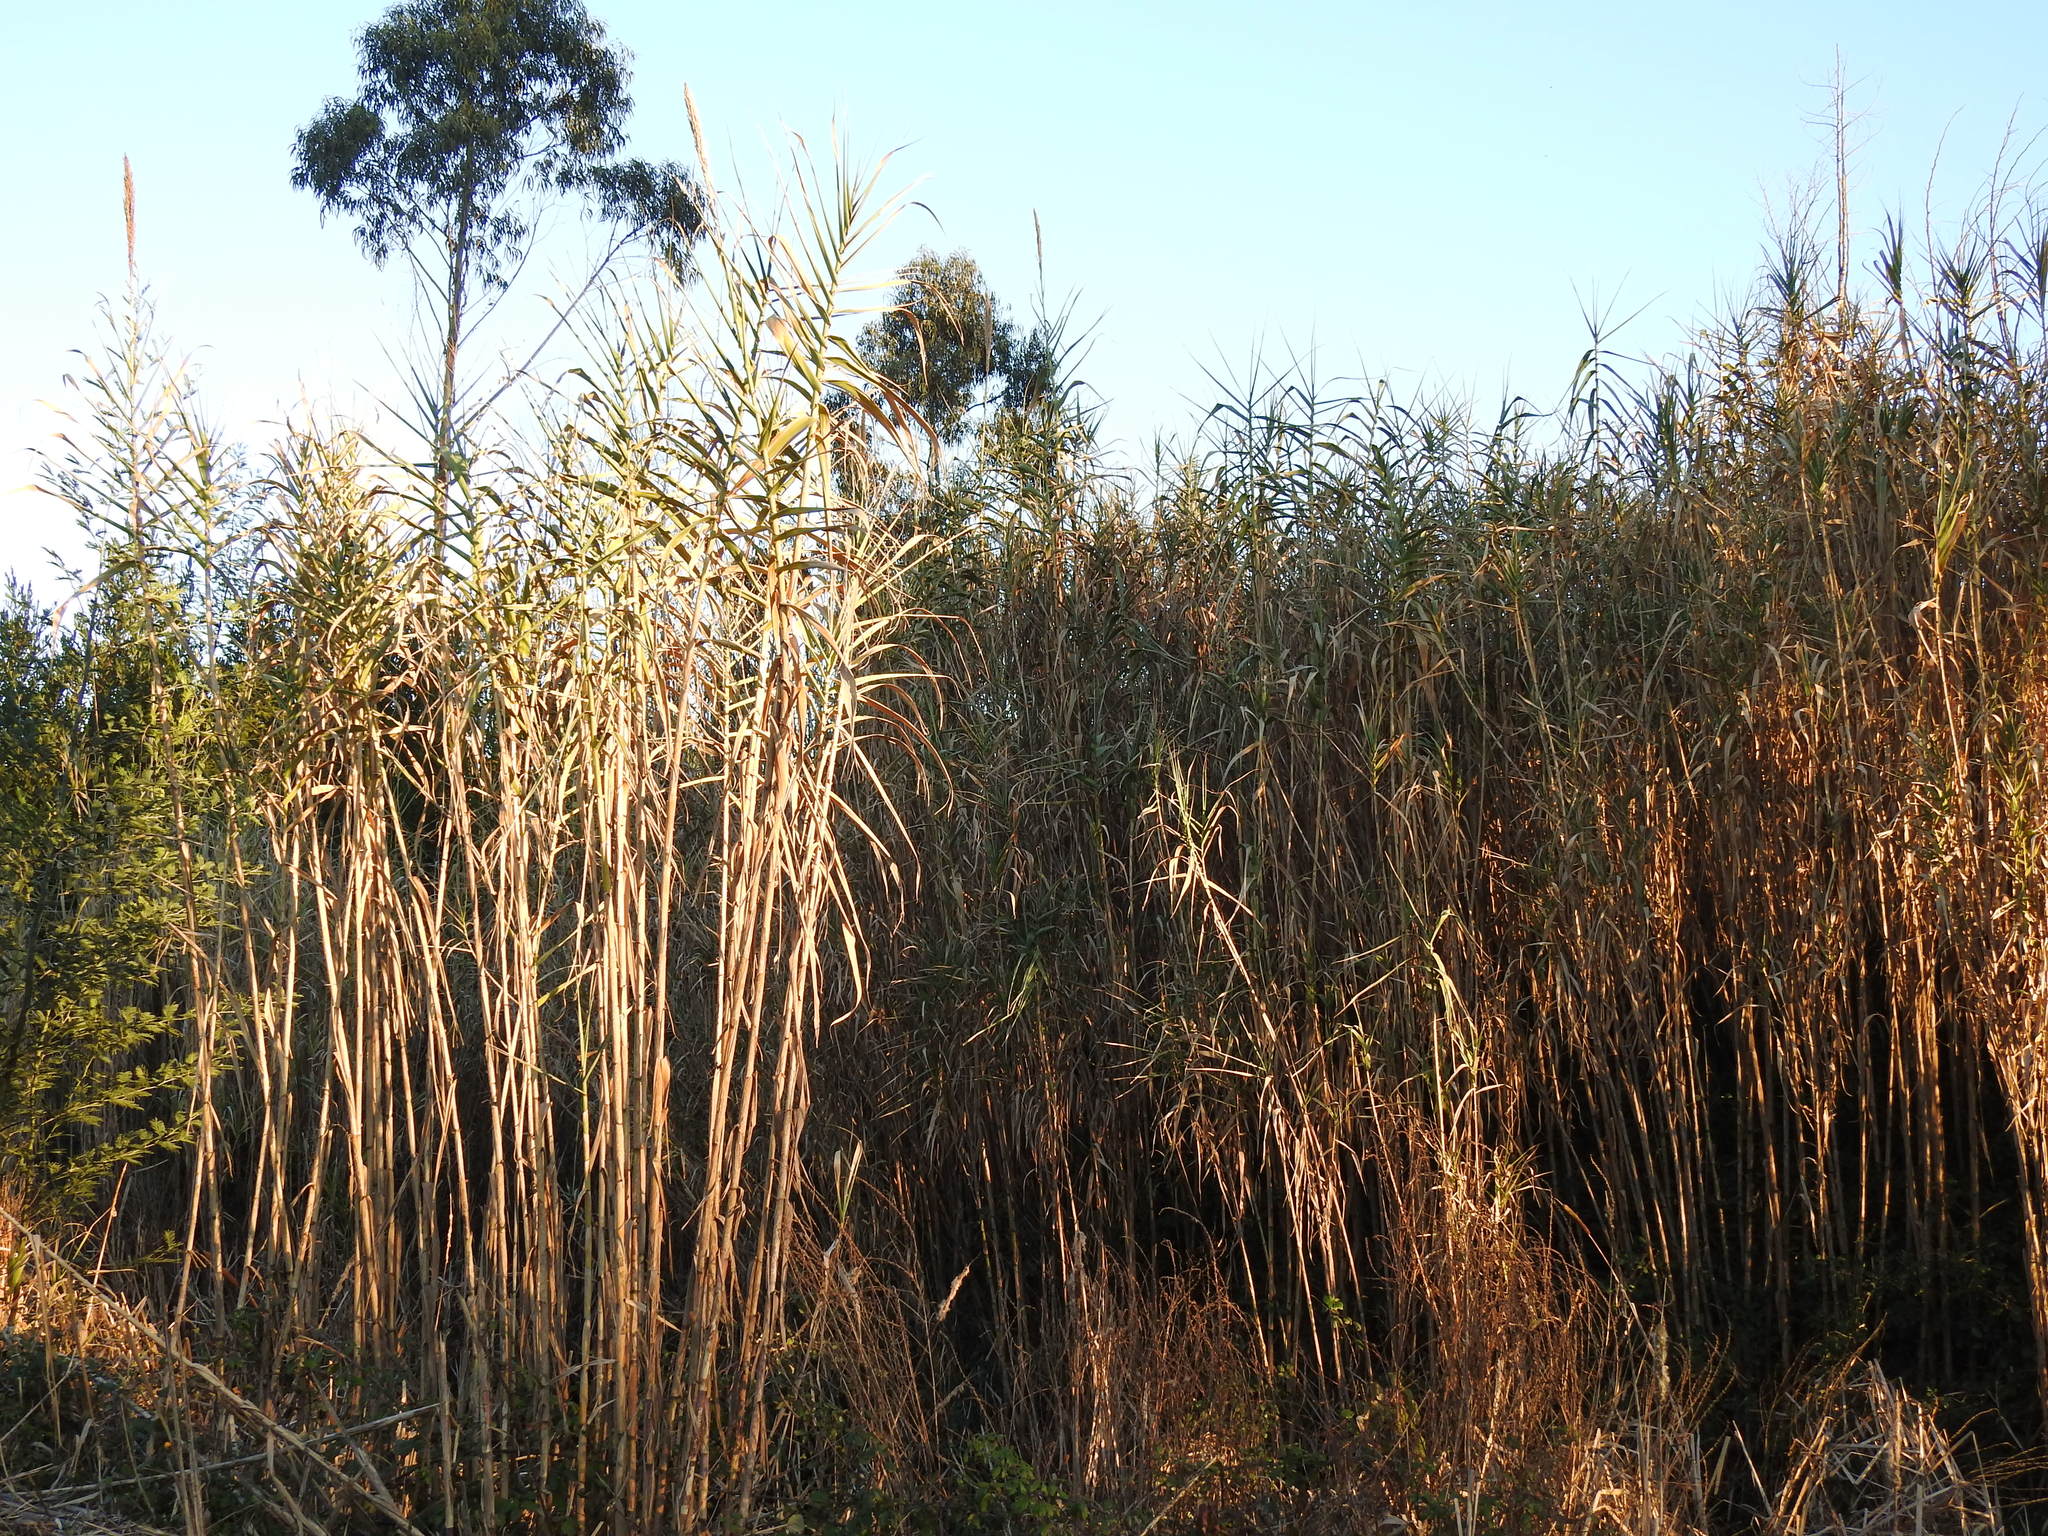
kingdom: Plantae
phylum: Tracheophyta
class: Liliopsida
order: Poales
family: Poaceae
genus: Arundo
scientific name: Arundo donax
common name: Giant reed
